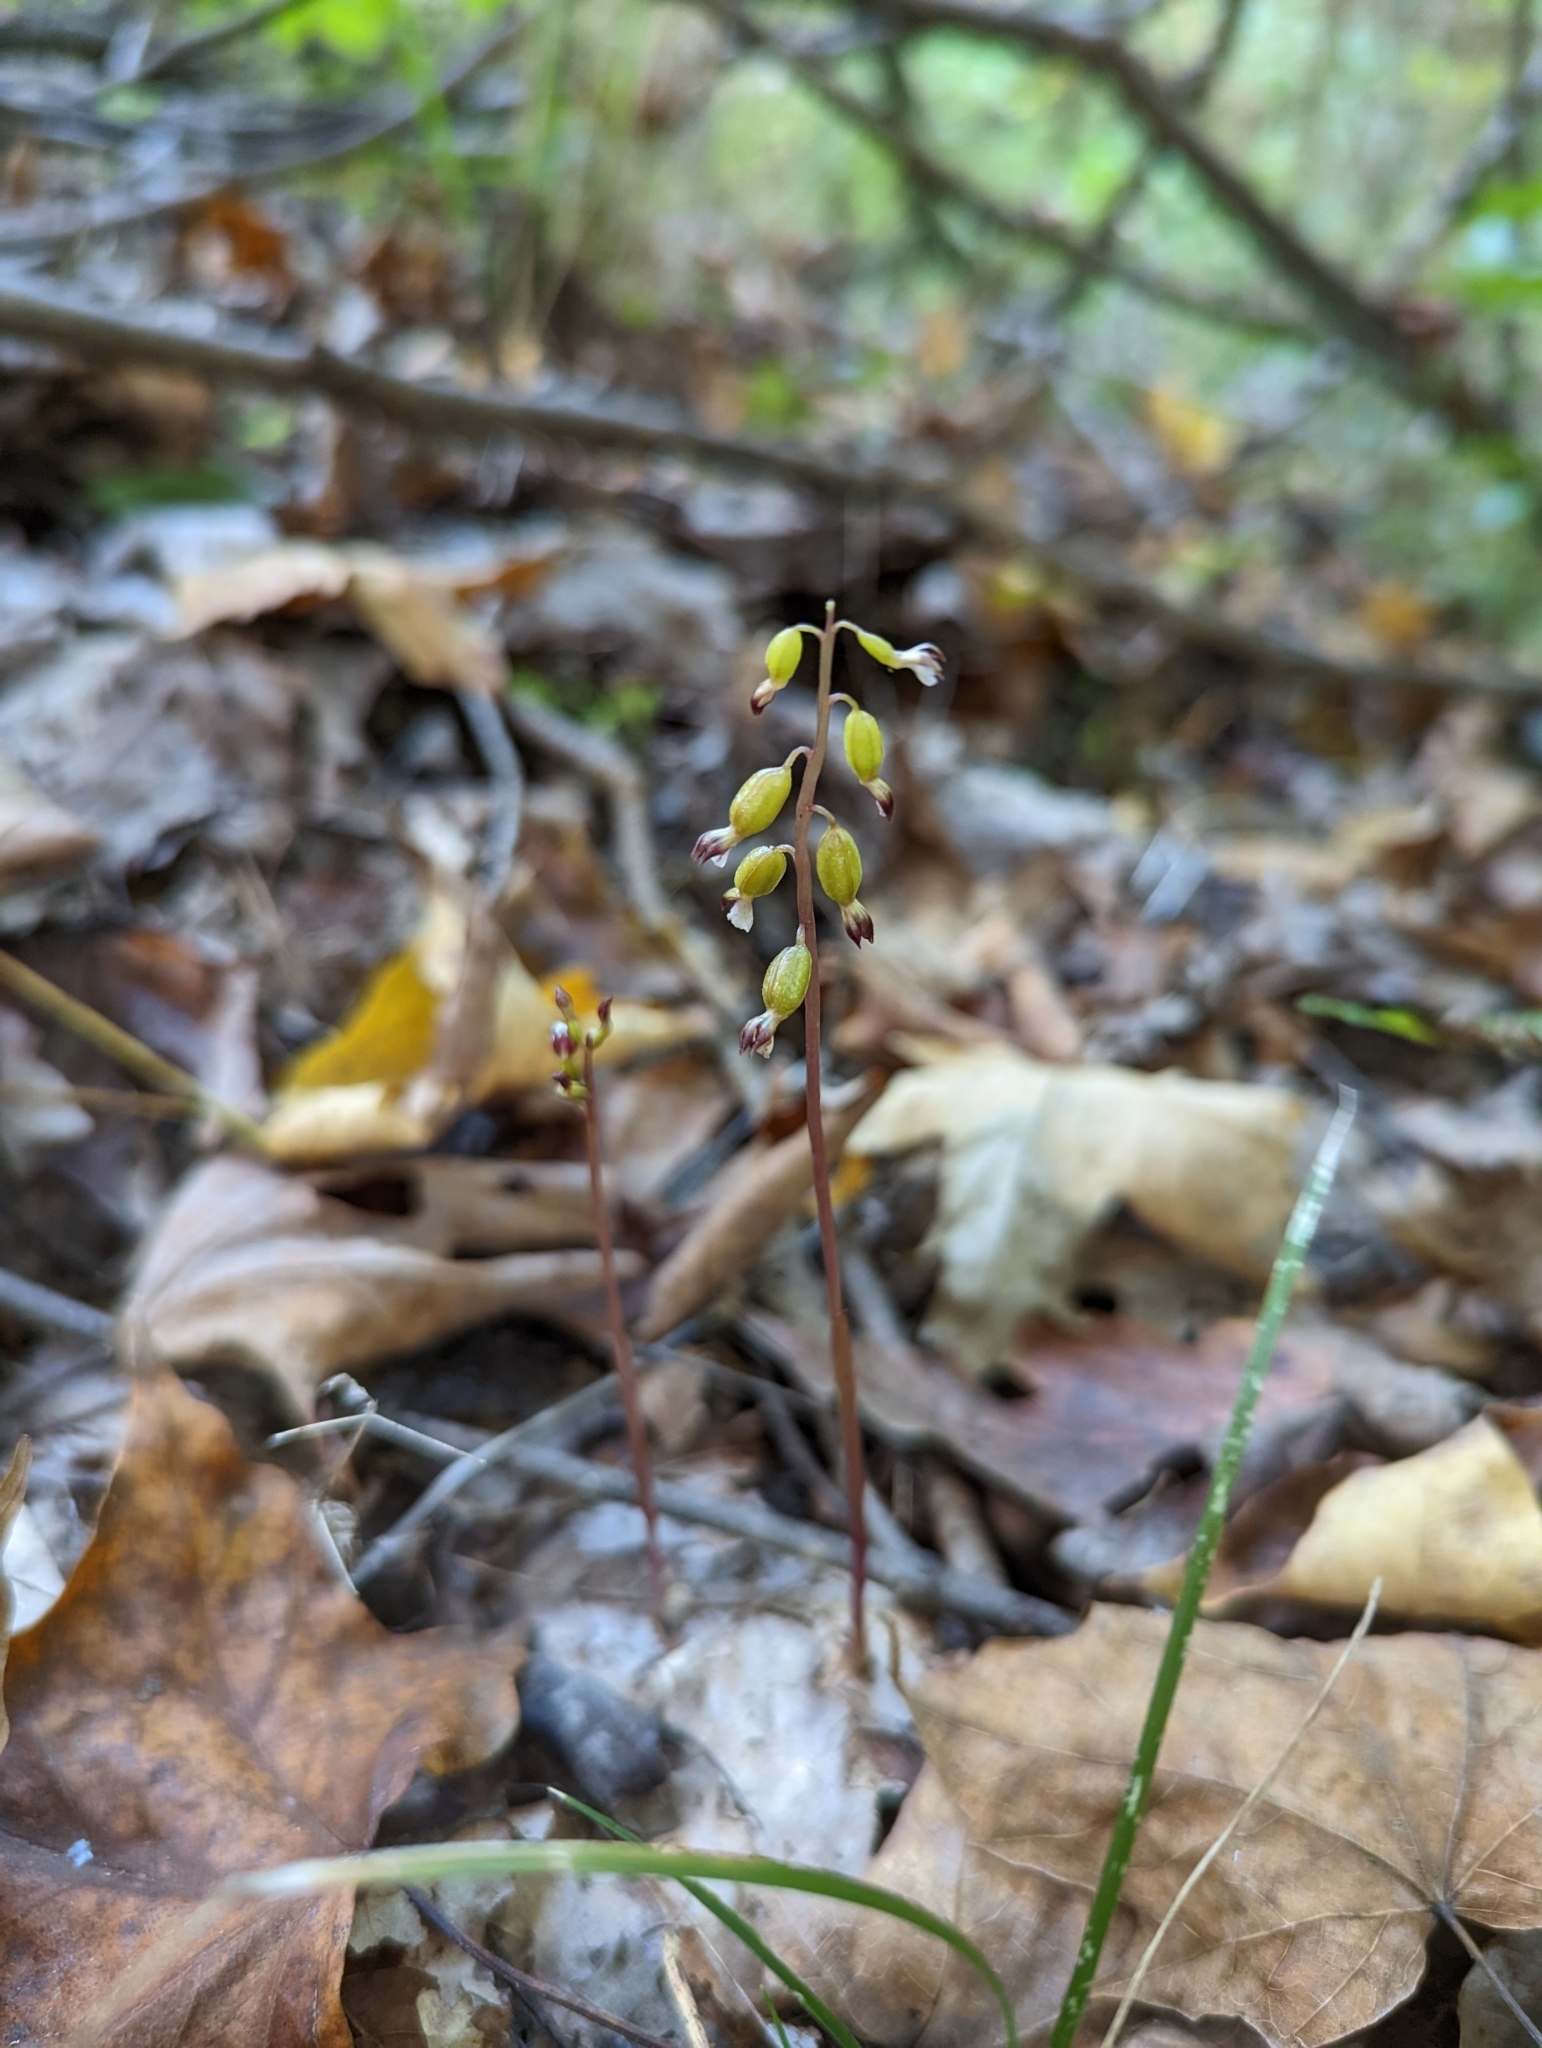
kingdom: Plantae
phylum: Tracheophyta
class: Liliopsida
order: Asparagales
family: Orchidaceae
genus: Corallorhiza
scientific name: Corallorhiza odontorhiza
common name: Autumn coralroot
